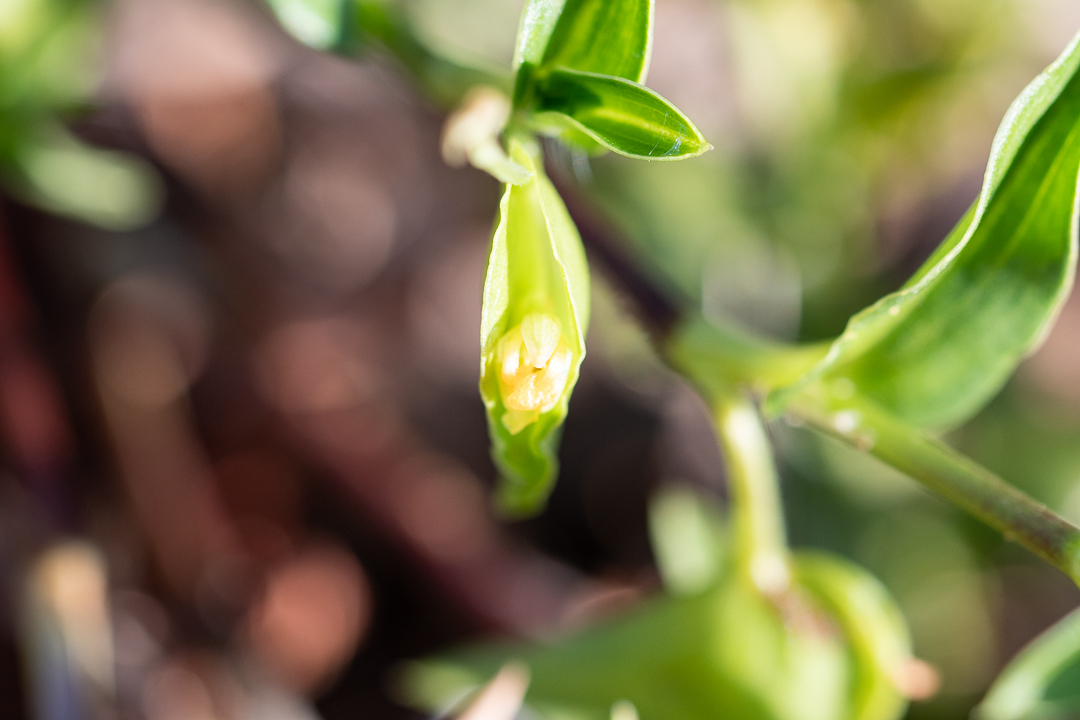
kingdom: Plantae
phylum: Tracheophyta
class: Liliopsida
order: Commelinales
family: Commelinaceae
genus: Commelina
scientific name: Commelina africana
